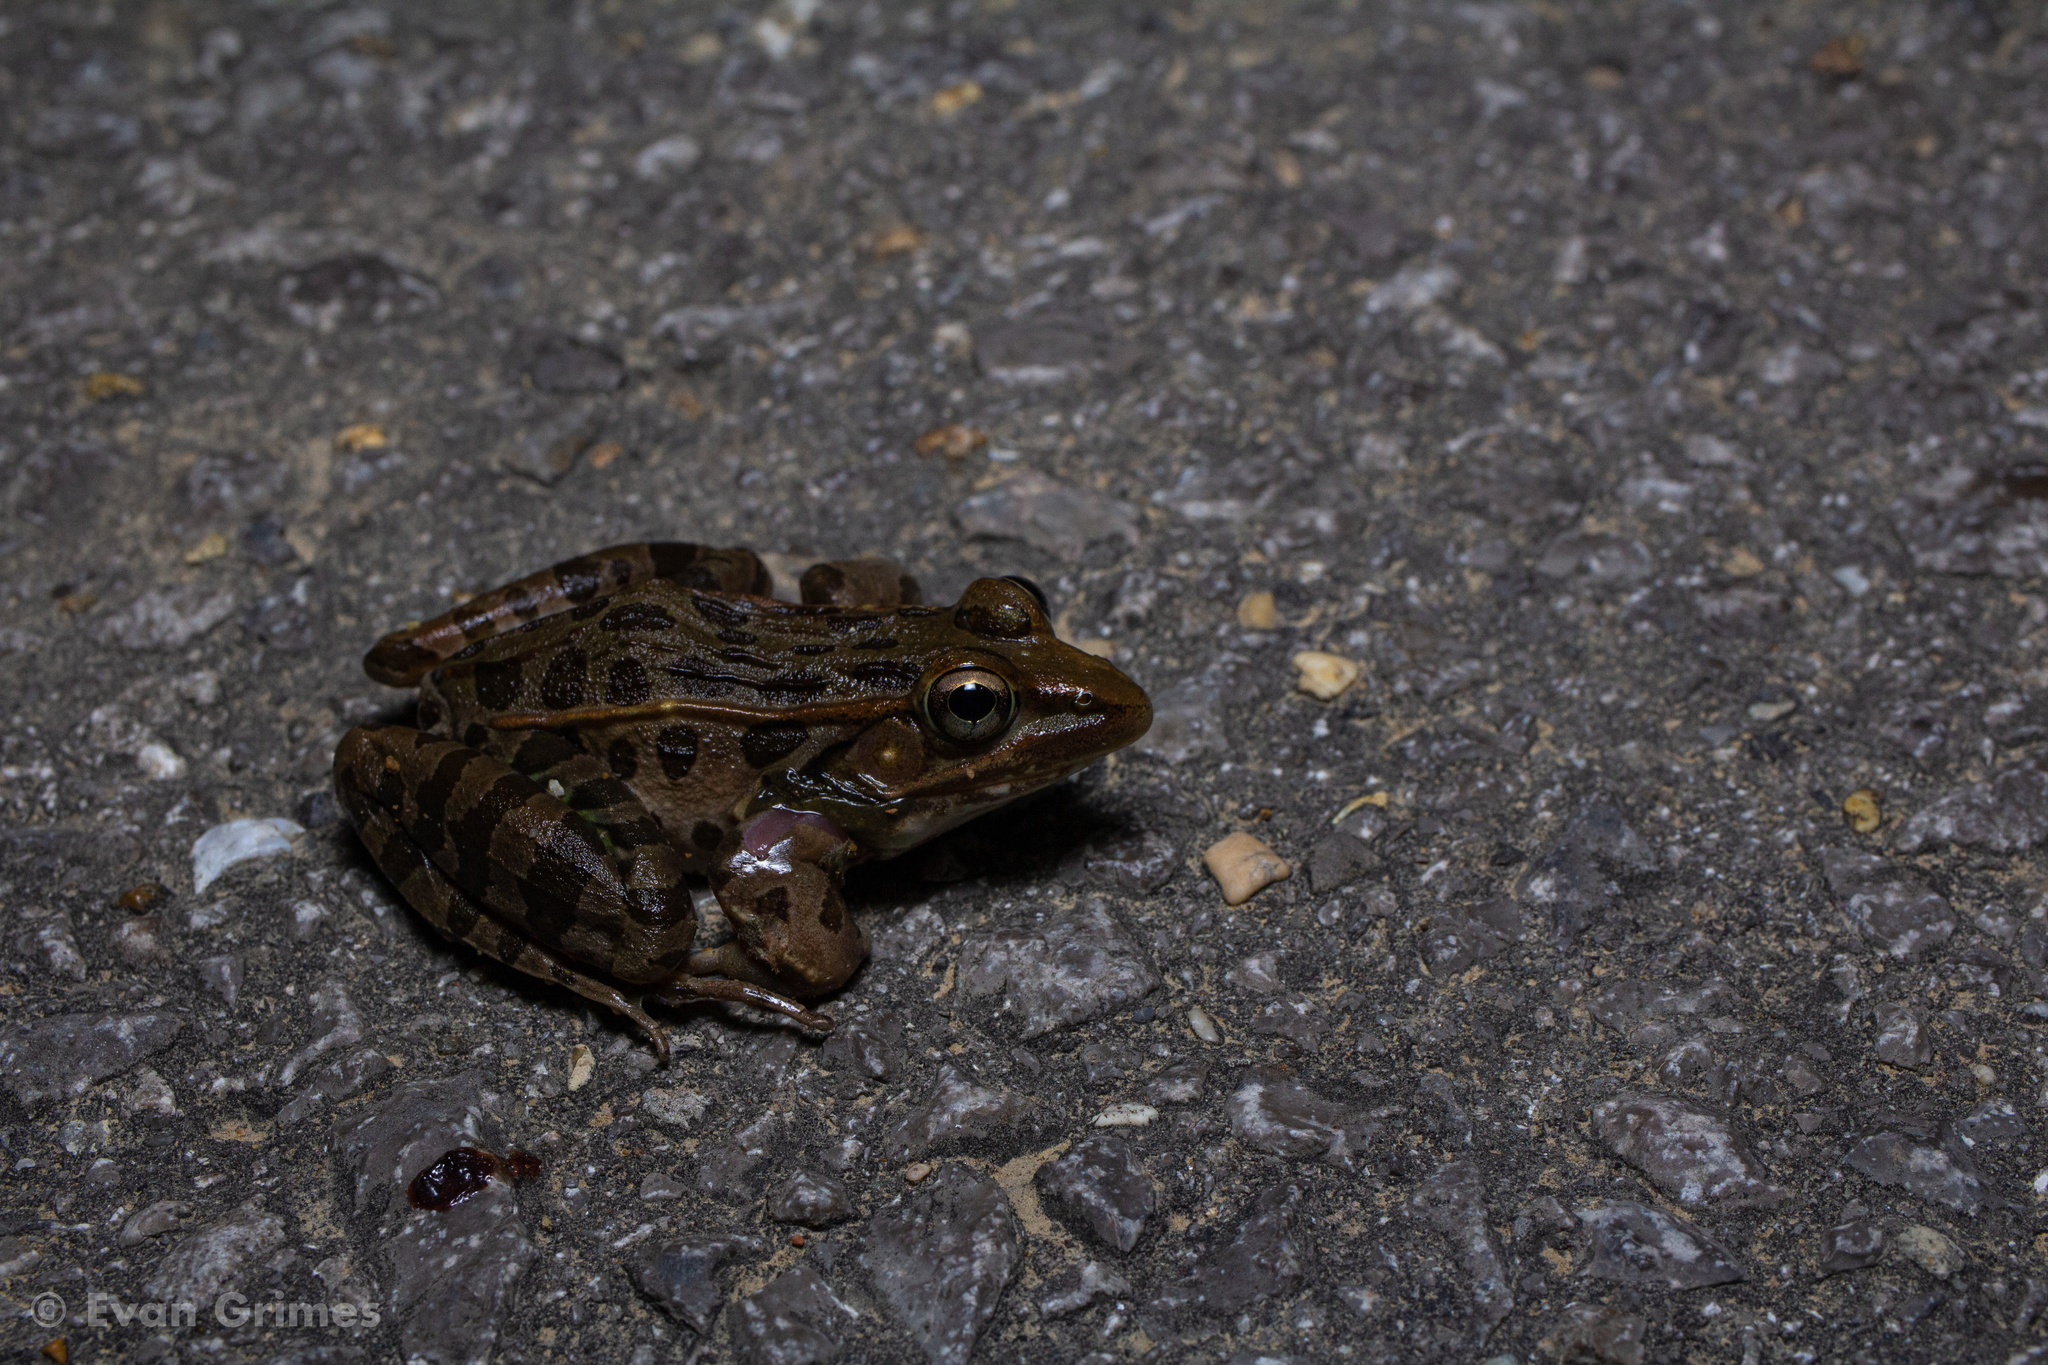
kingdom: Animalia
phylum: Chordata
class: Amphibia
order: Anura
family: Ranidae
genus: Lithobates
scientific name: Lithobates sphenocephalus
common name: Southern leopard frog
